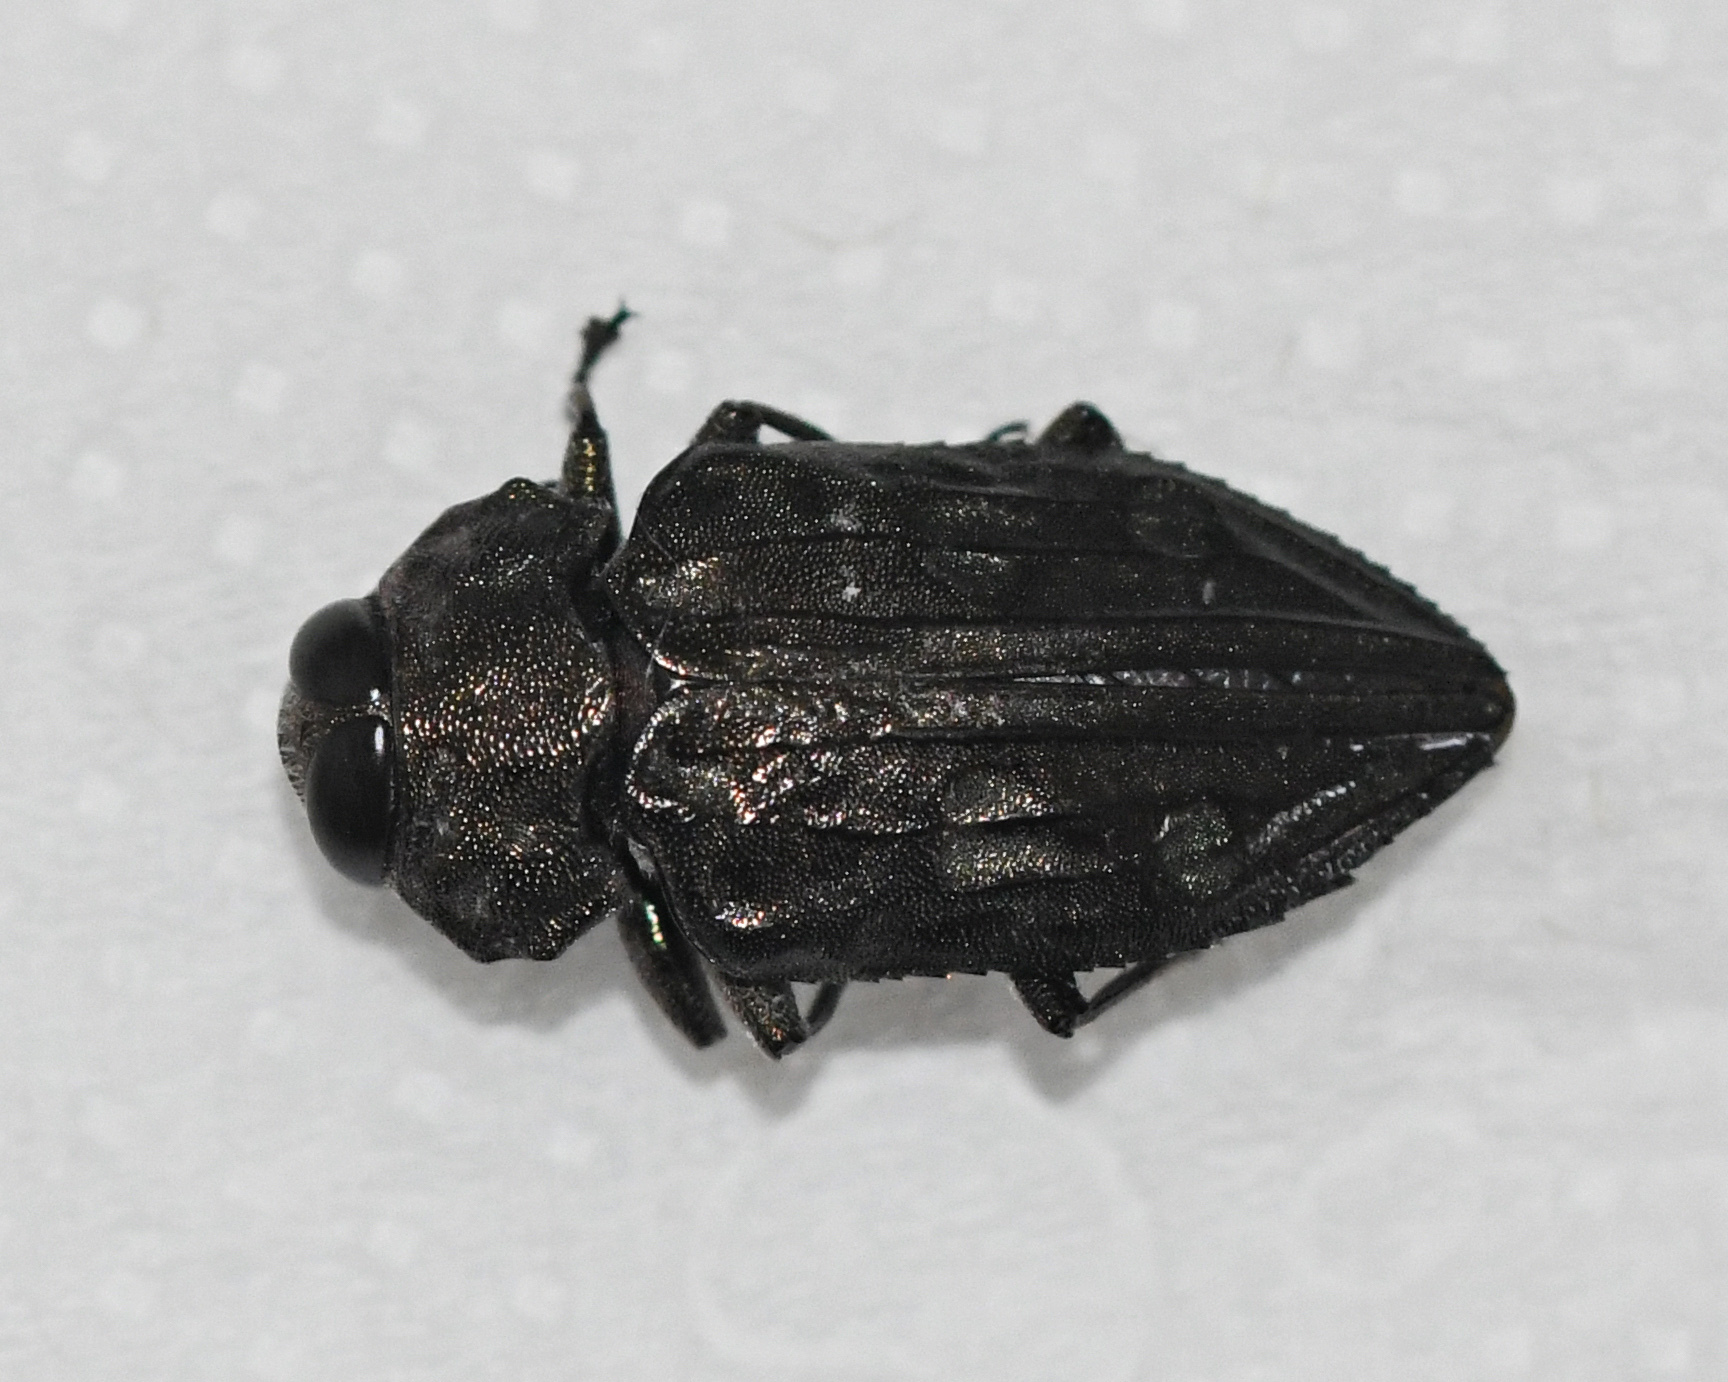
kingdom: Animalia
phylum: Arthropoda
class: Insecta
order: Coleoptera
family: Buprestidae
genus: Chrysobothris
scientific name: Chrysobothris tranquebarica
